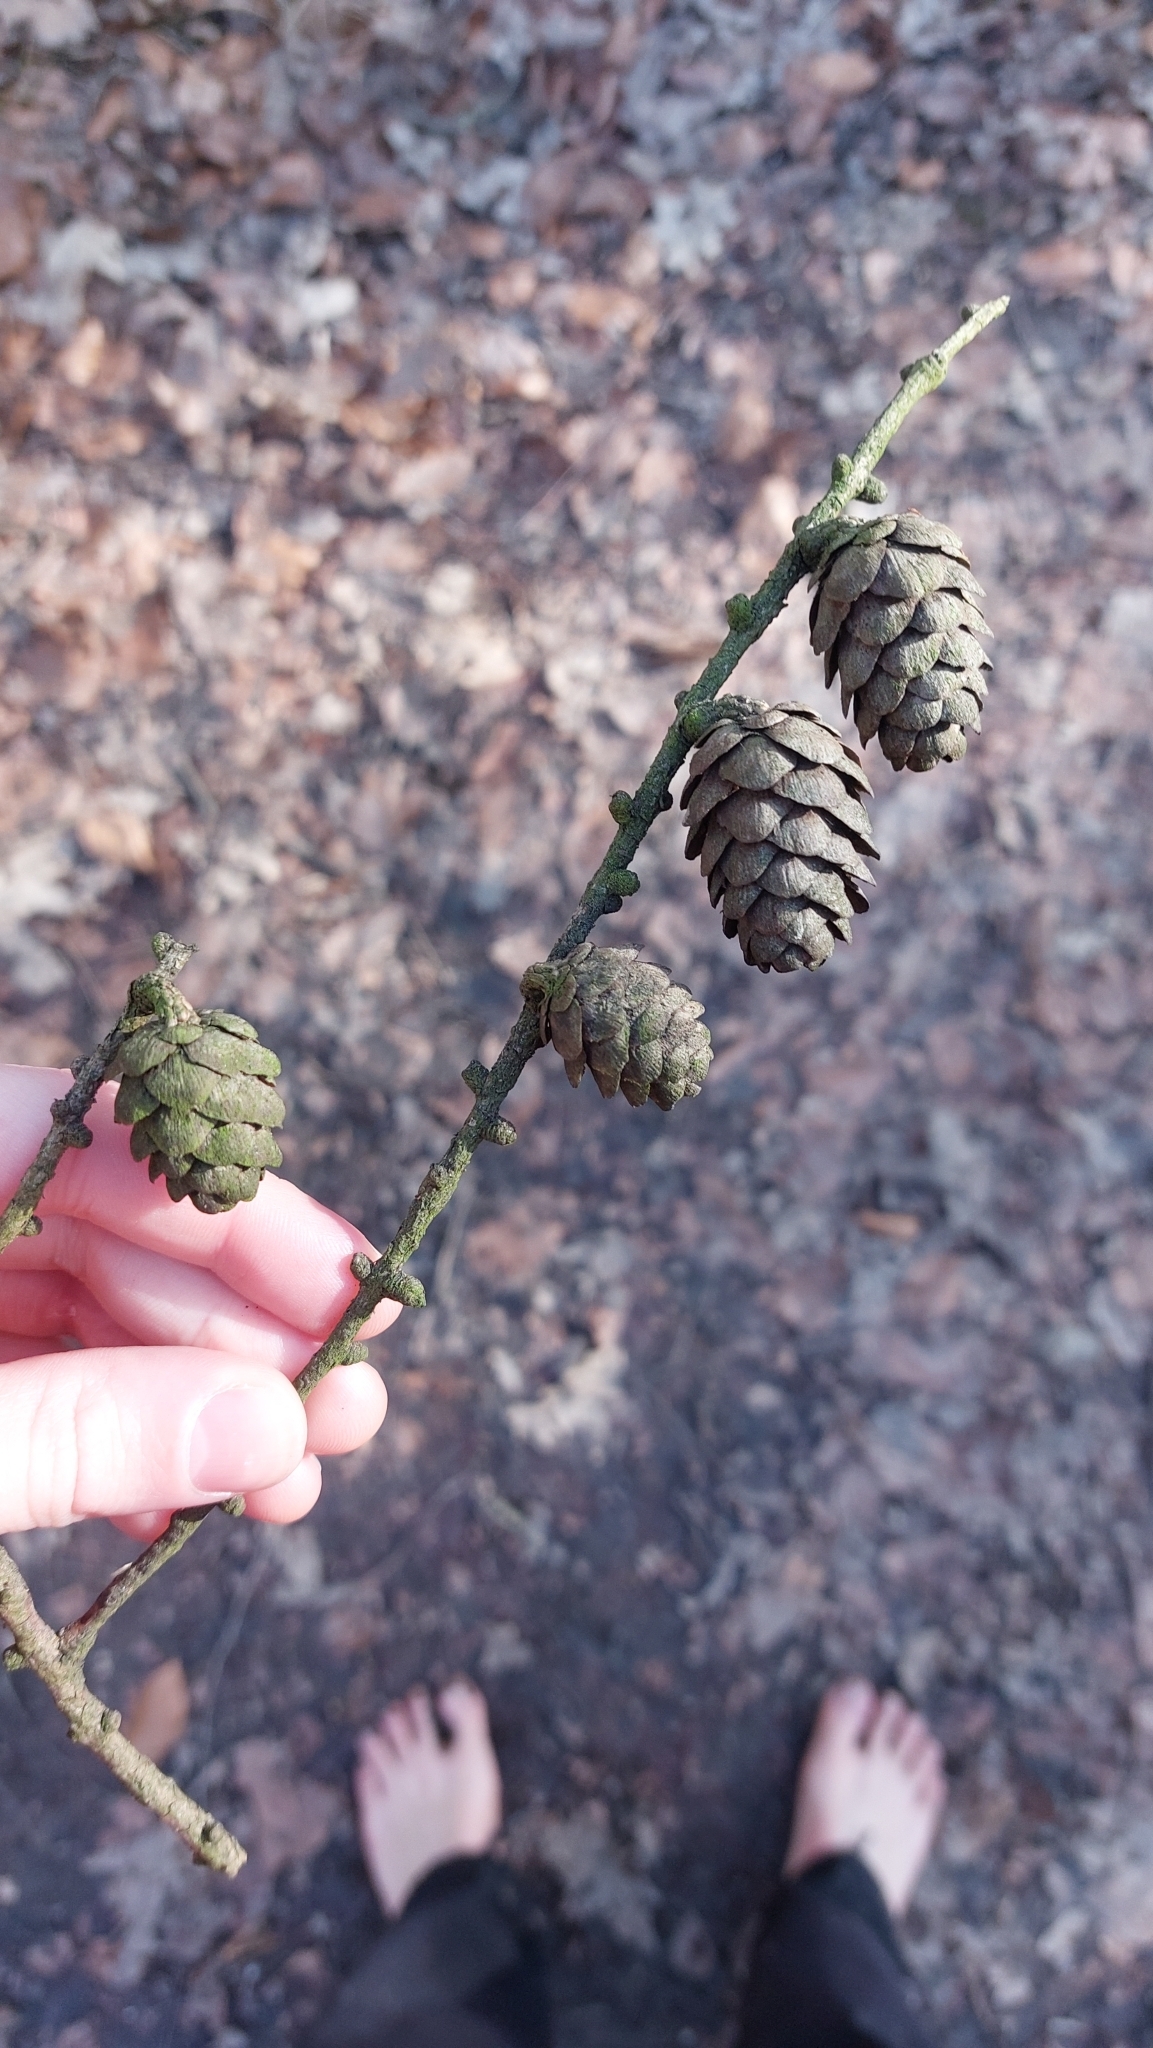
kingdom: Plantae
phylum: Tracheophyta
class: Pinopsida
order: Pinales
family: Pinaceae
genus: Larix
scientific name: Larix decidua
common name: European larch
